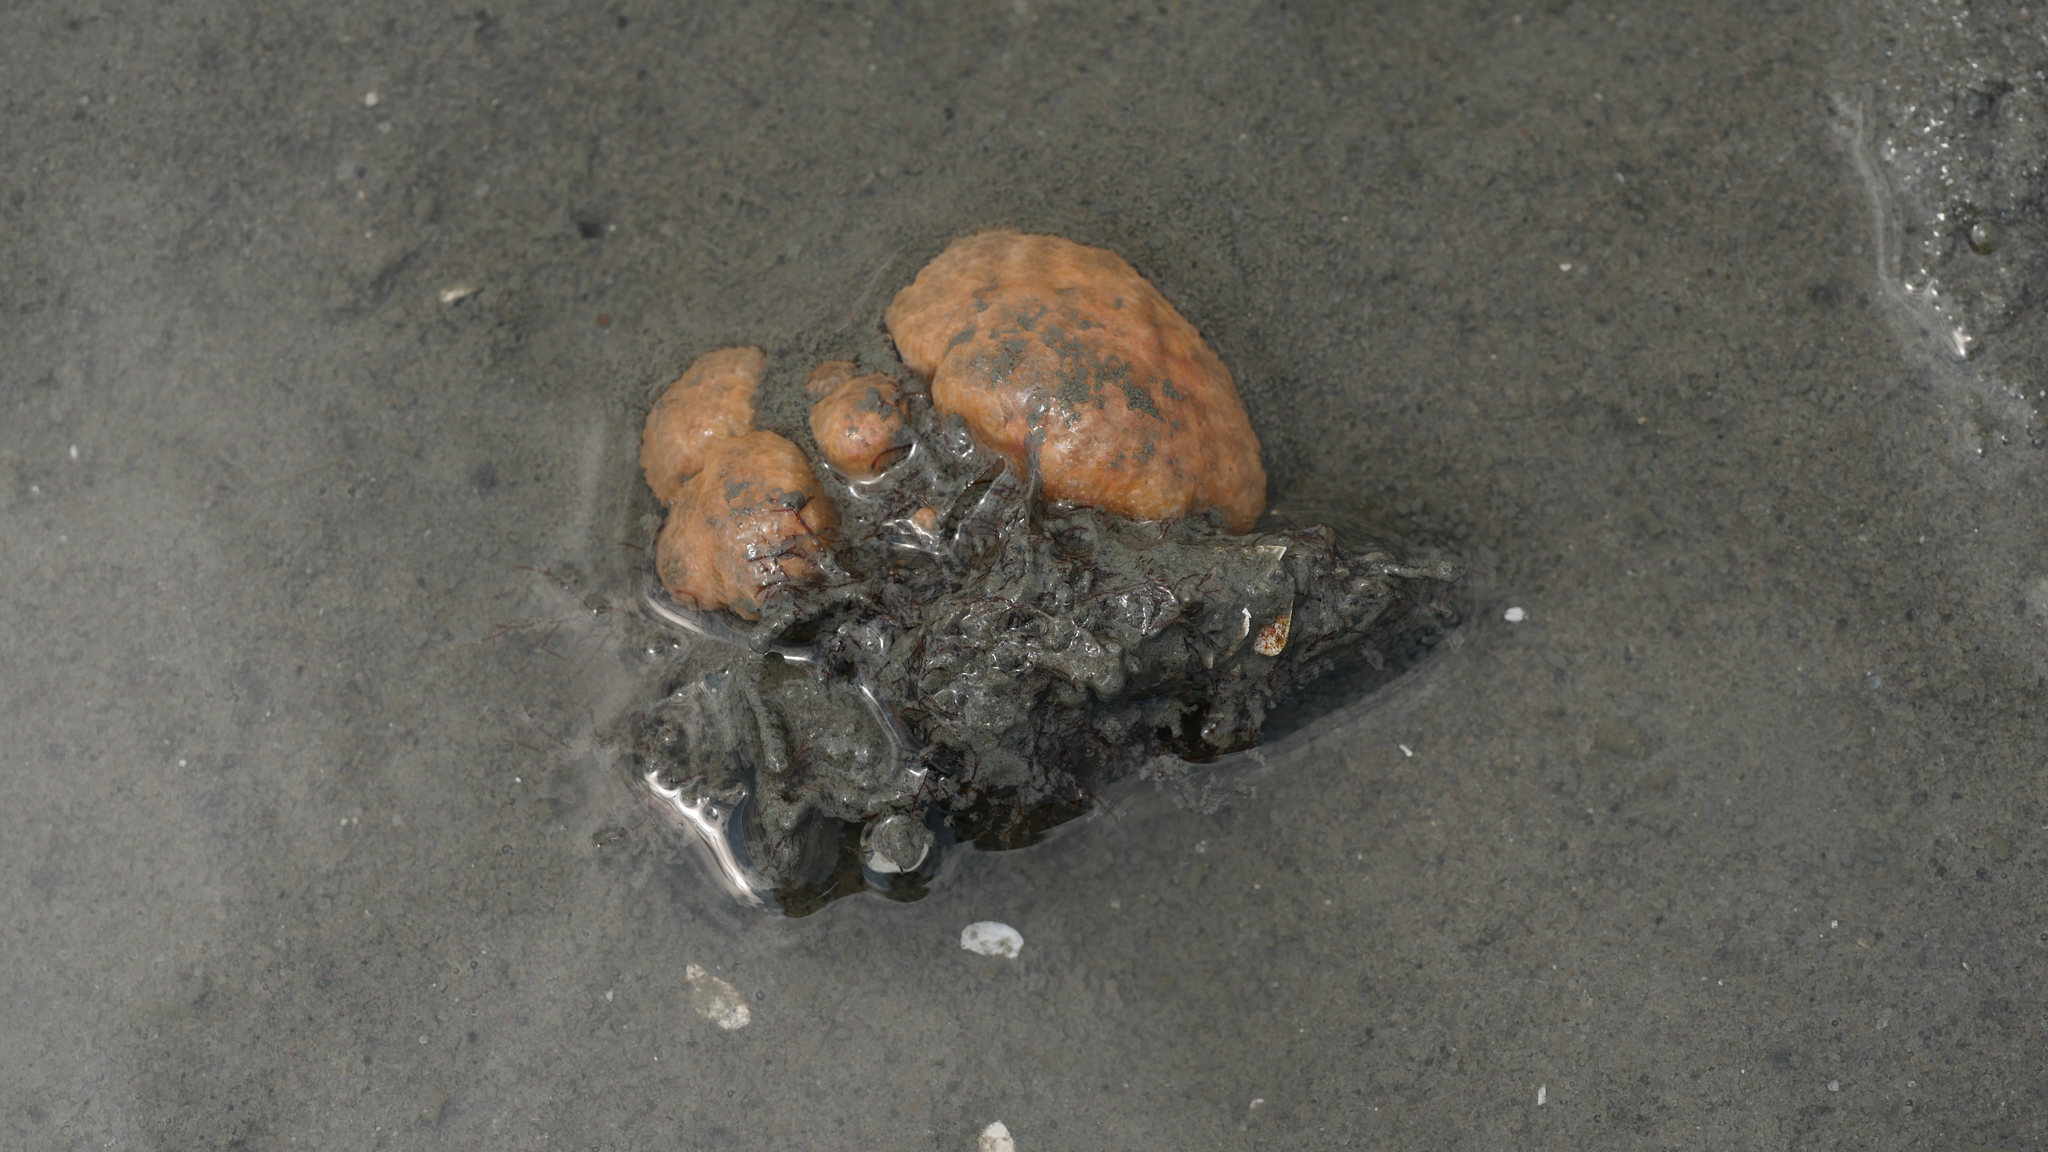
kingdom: Animalia
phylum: Chordata
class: Ascidiacea
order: Aplousobranchia
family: Polyclinidae
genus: Aplidium
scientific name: Aplidium stellatum
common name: Atlantic sea pork
